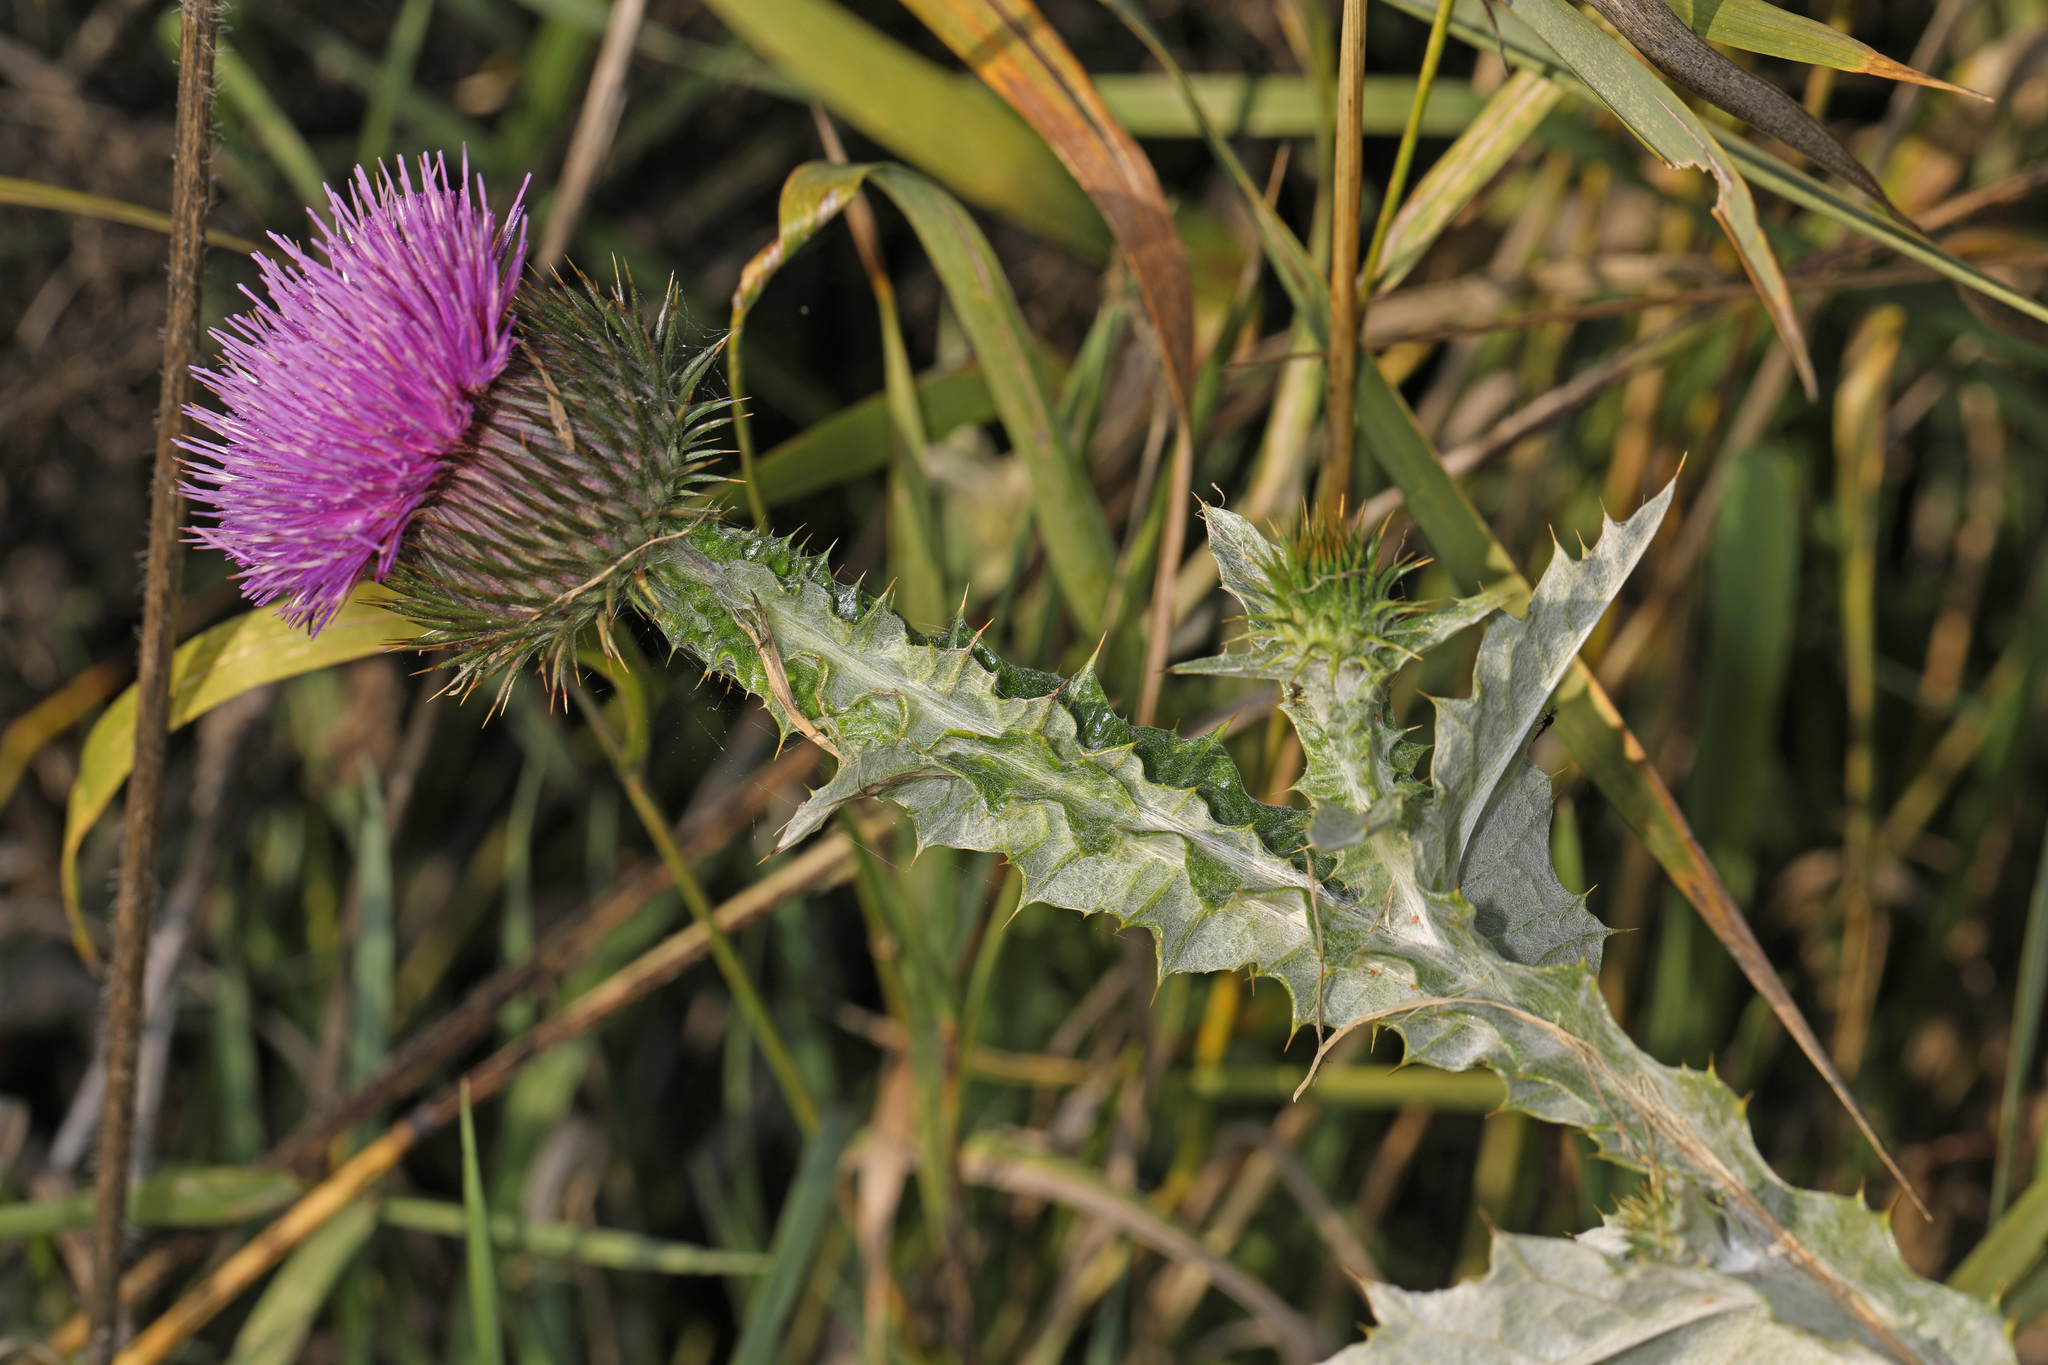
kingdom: Plantae
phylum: Tracheophyta
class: Magnoliopsida
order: Asterales
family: Asteraceae
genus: Onopordum
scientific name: Onopordum acanthium
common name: Scotch thistle
